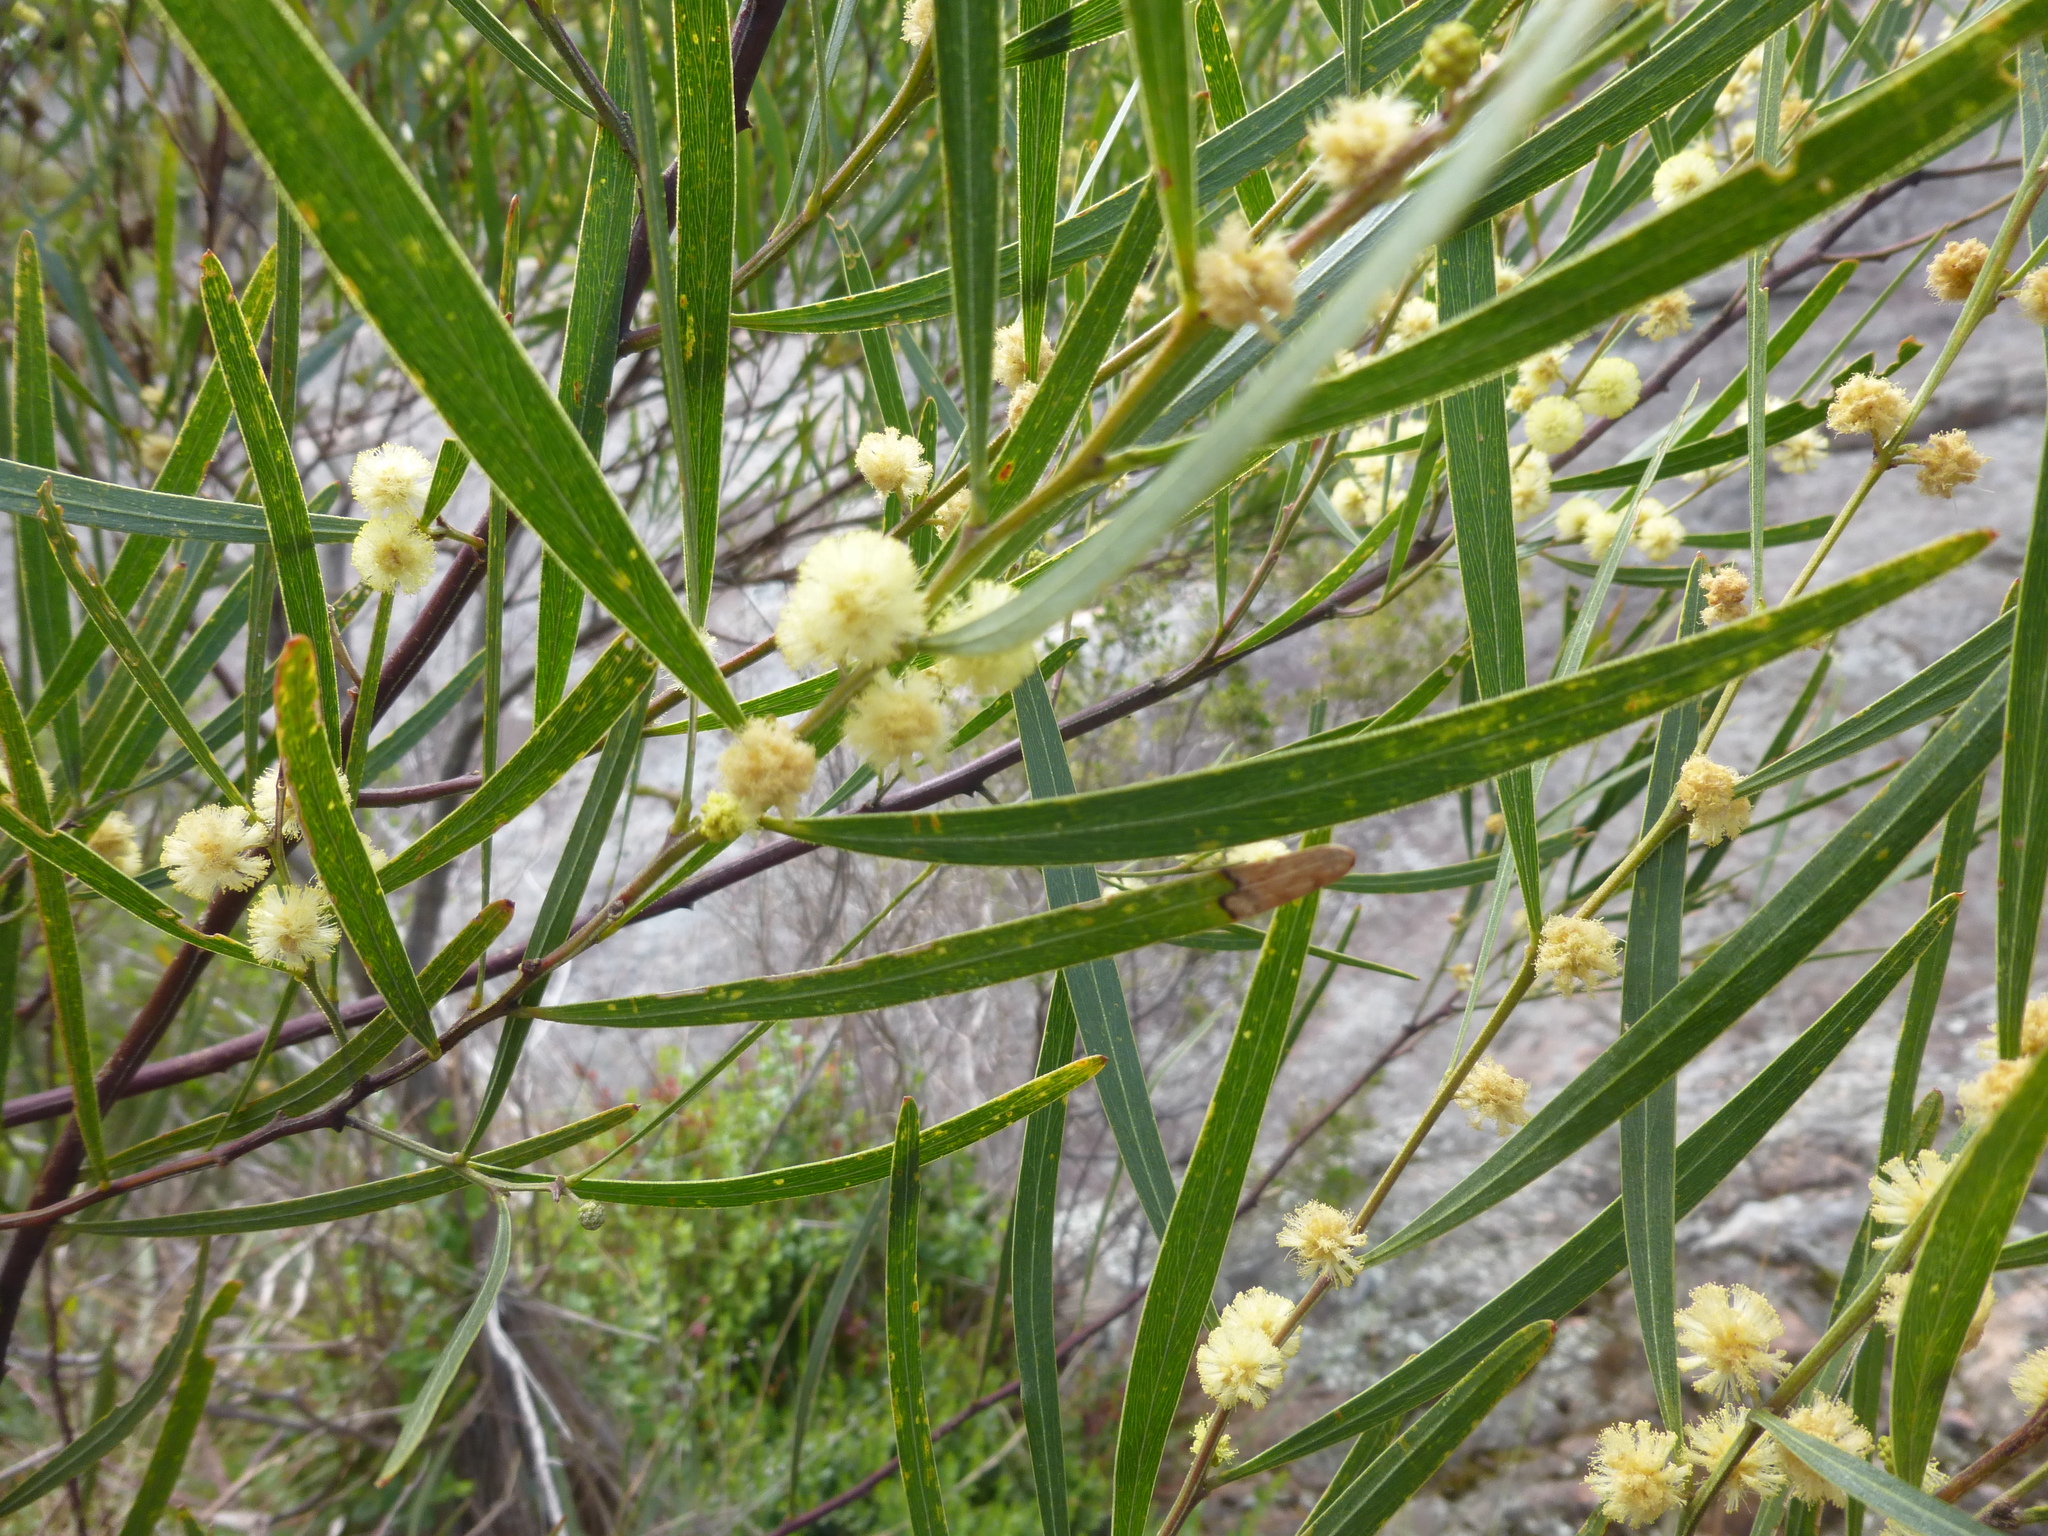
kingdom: Plantae
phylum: Tracheophyta
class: Magnoliopsida
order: Fabales
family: Fabaceae
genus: Acacia
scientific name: Acacia provincialis
